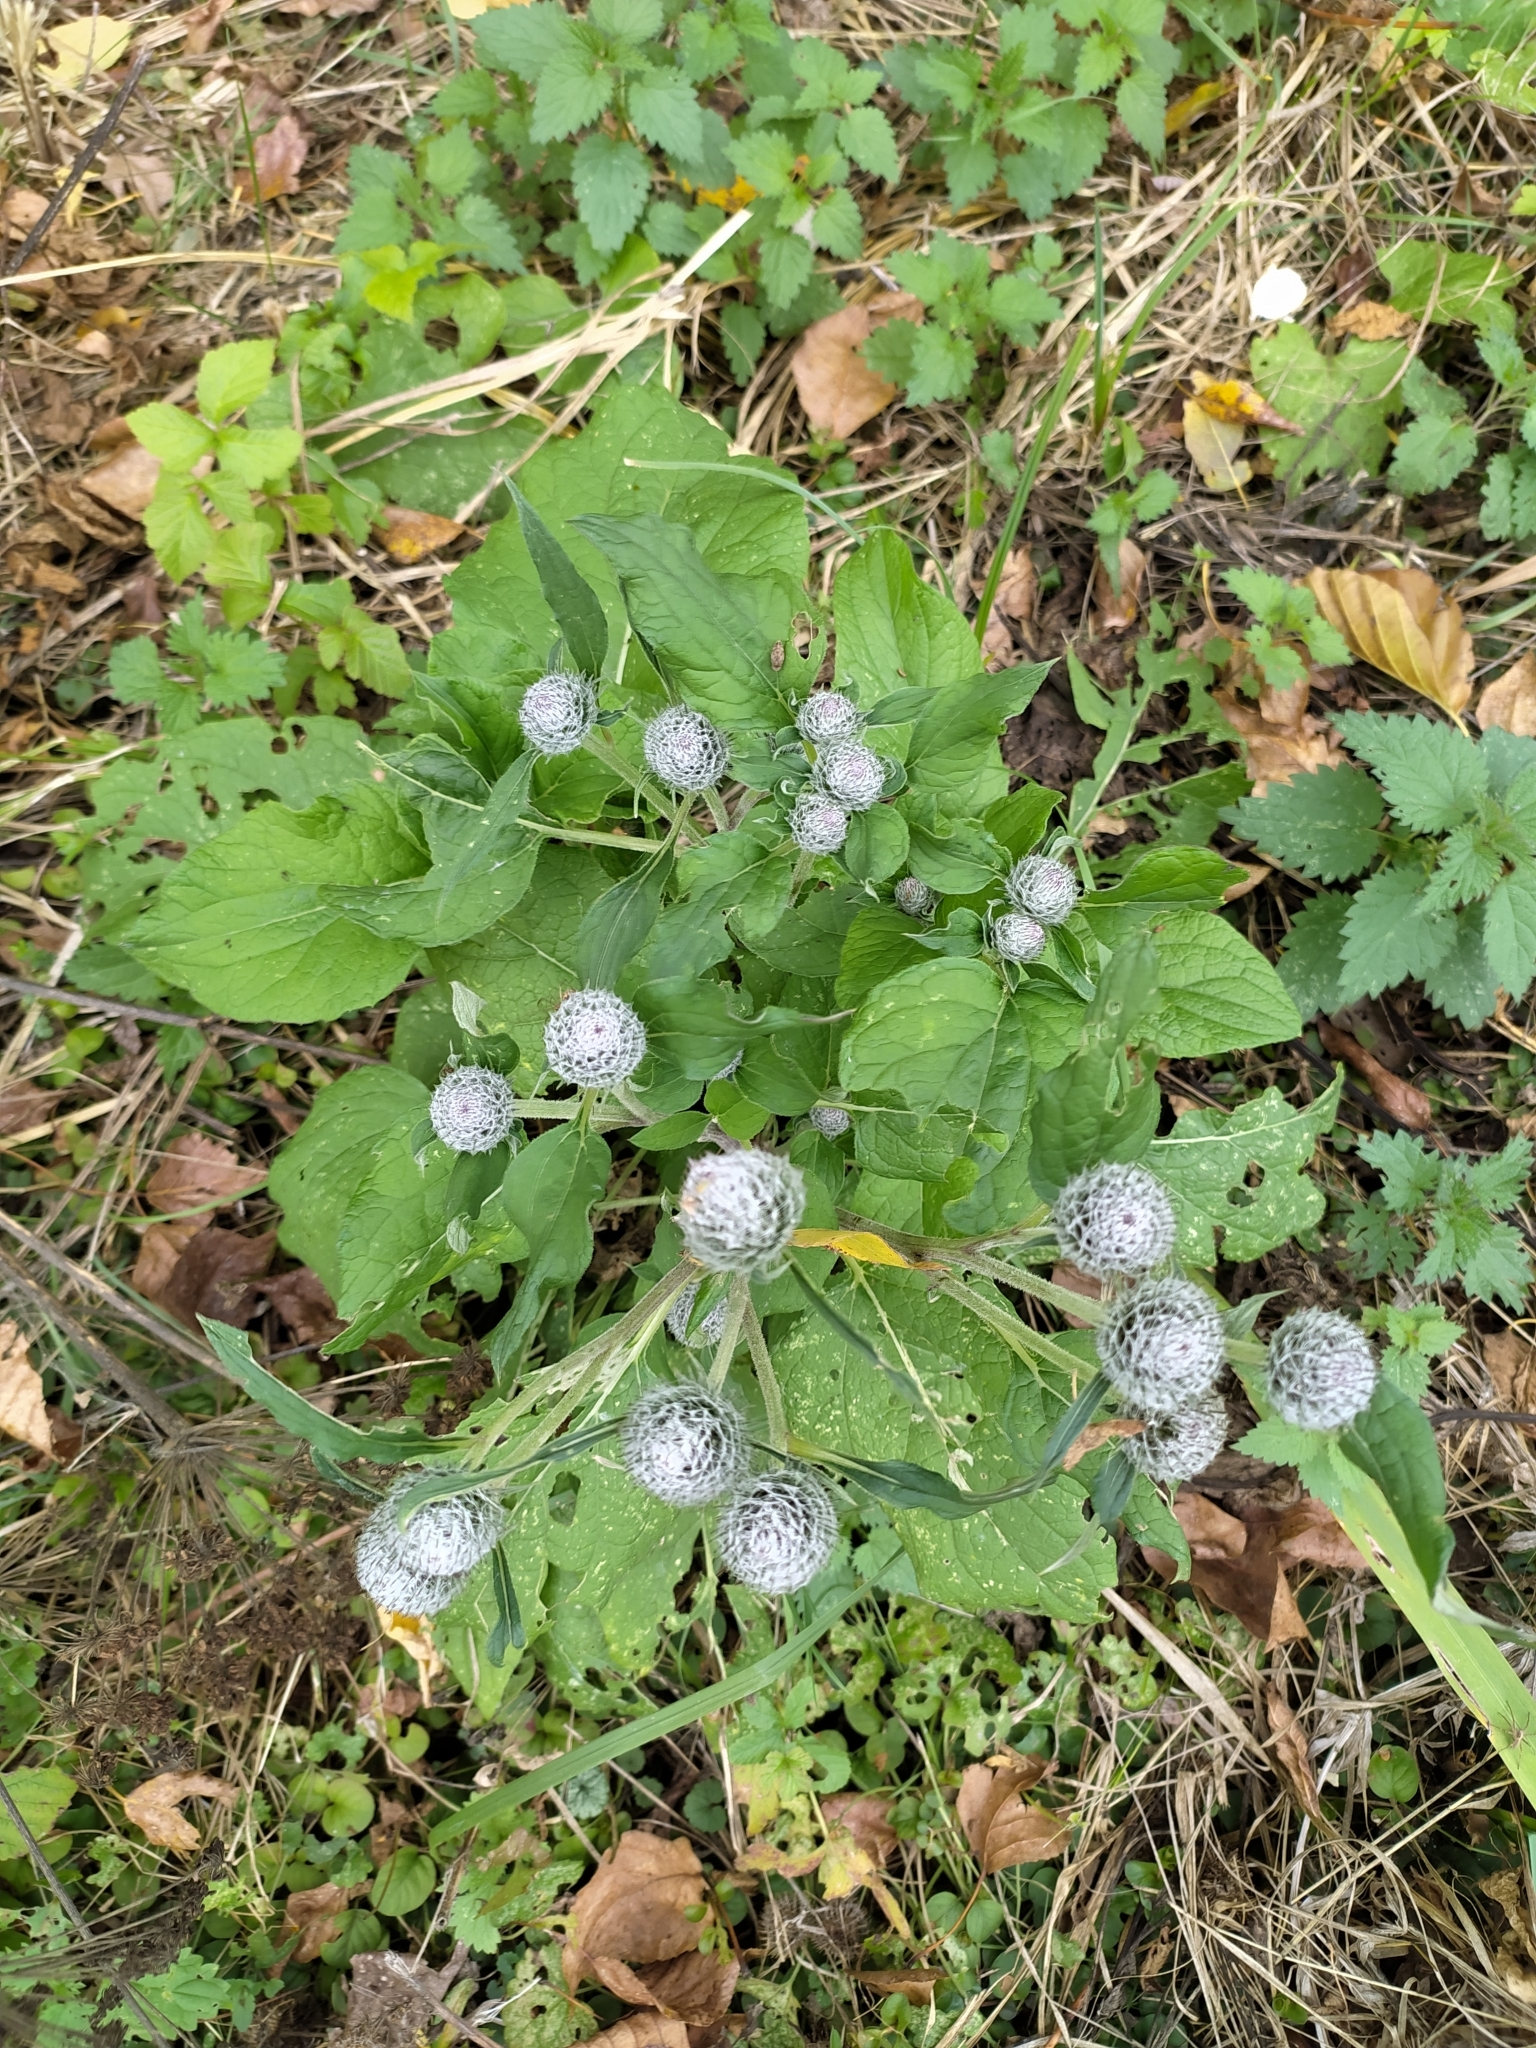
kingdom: Plantae
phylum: Tracheophyta
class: Magnoliopsida
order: Asterales
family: Asteraceae
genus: Arctium
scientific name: Arctium tomentosum
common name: Woolly burdock
